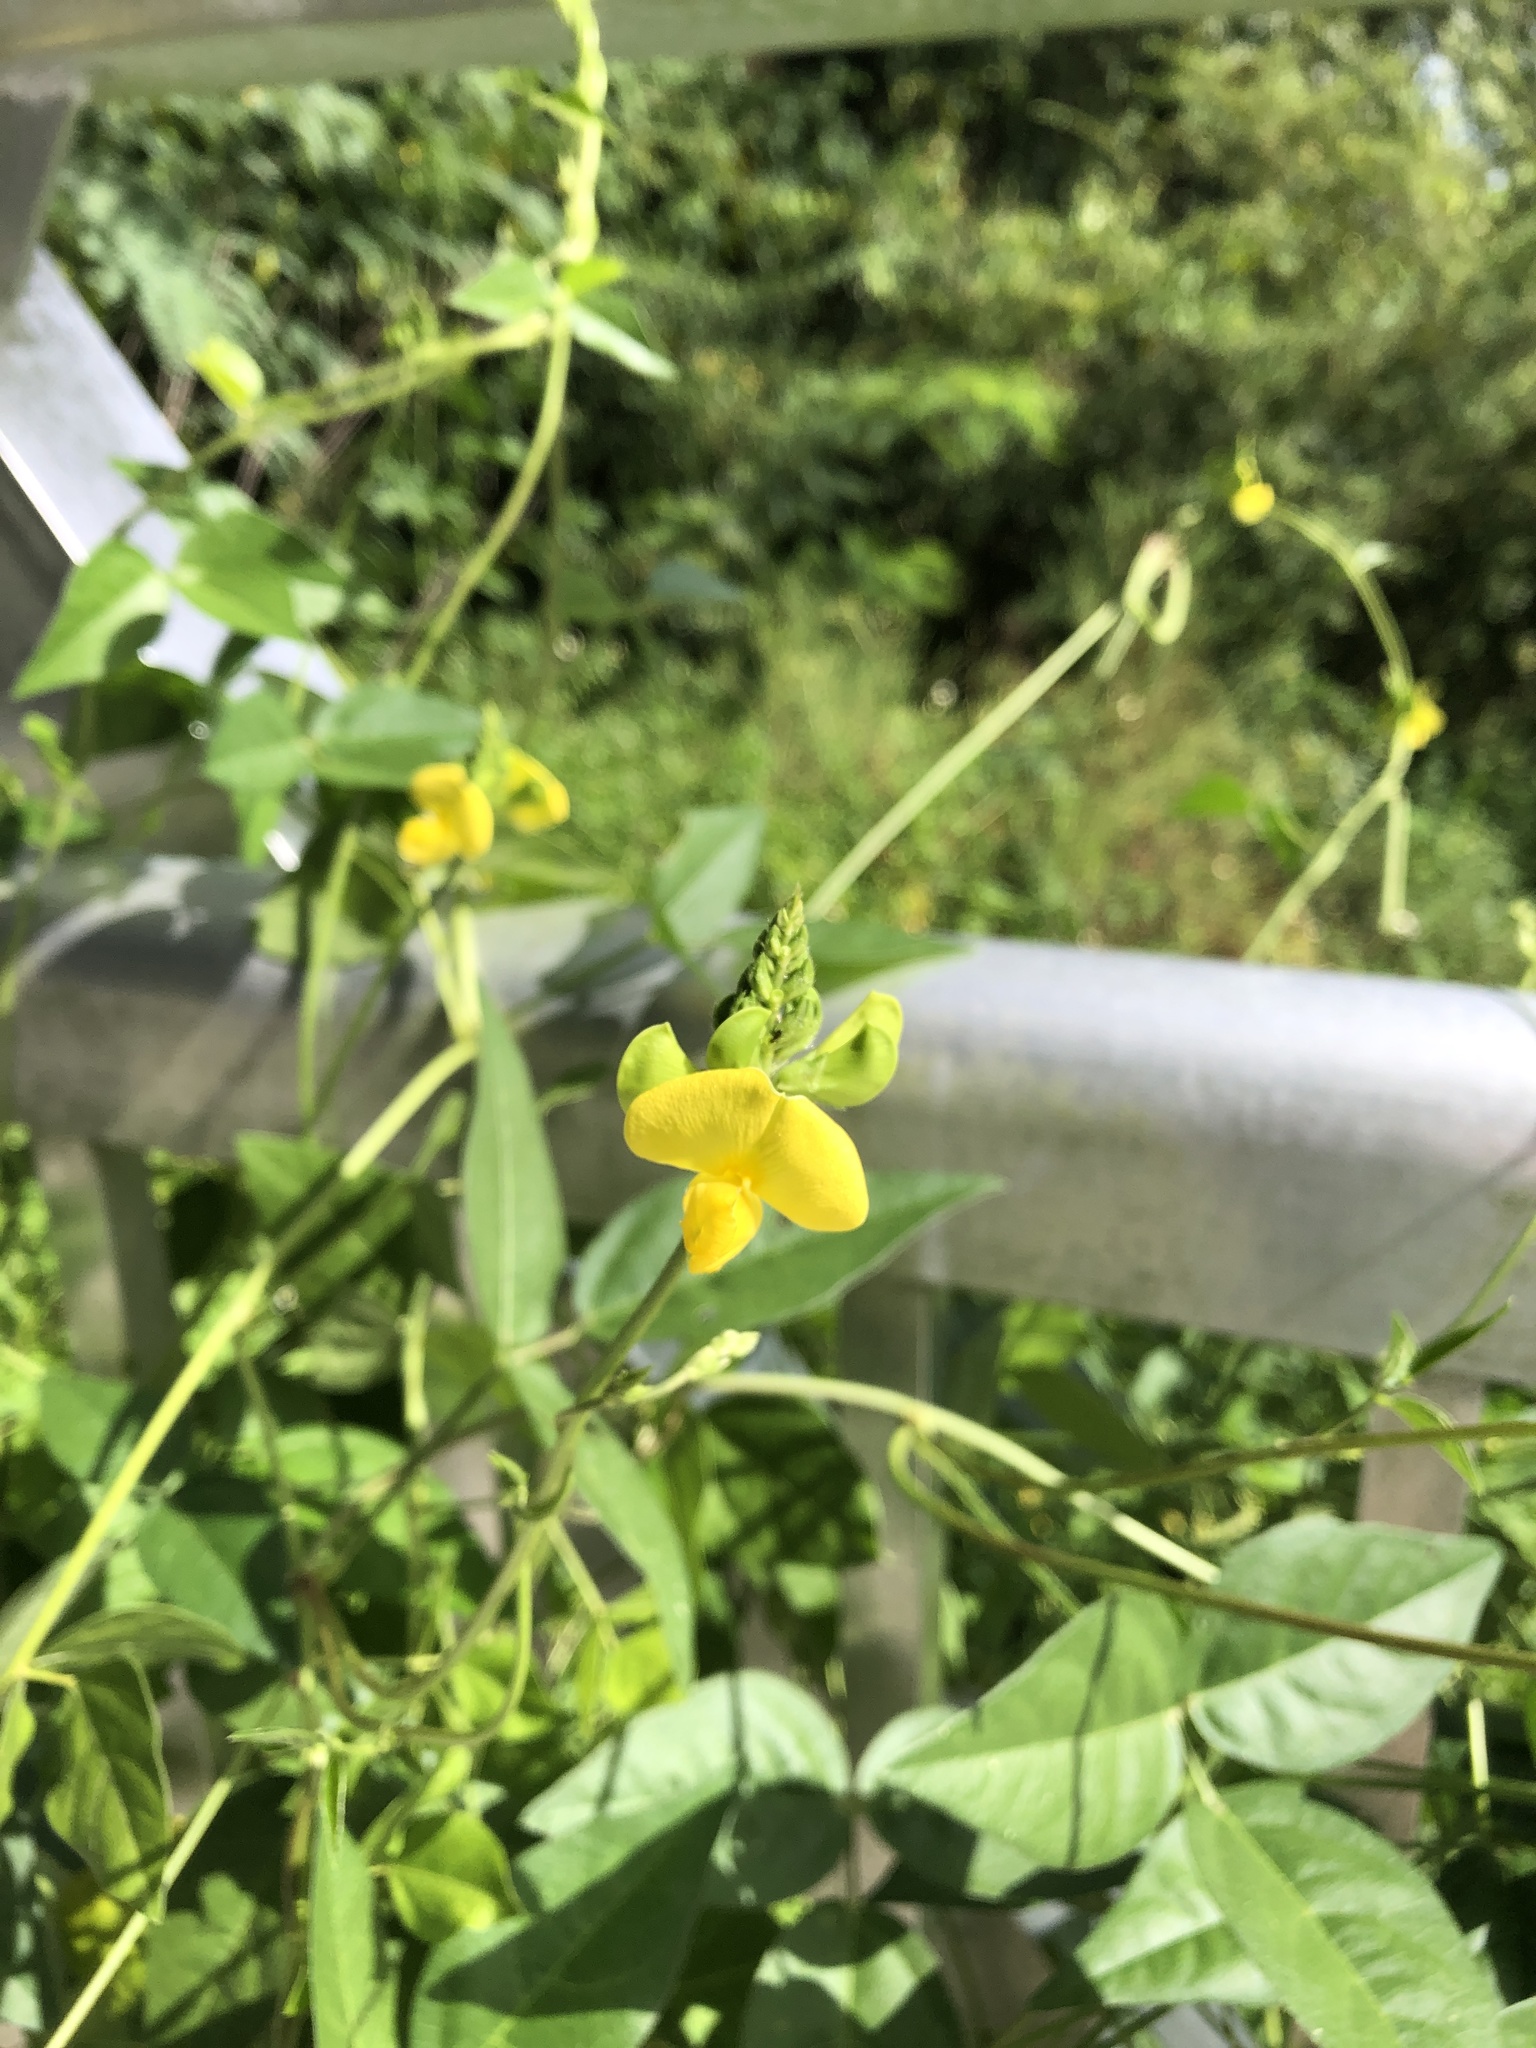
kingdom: Plantae
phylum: Tracheophyta
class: Magnoliopsida
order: Fabales
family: Fabaceae
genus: Vigna
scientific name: Vigna luteola
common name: Hairypod cowpea
